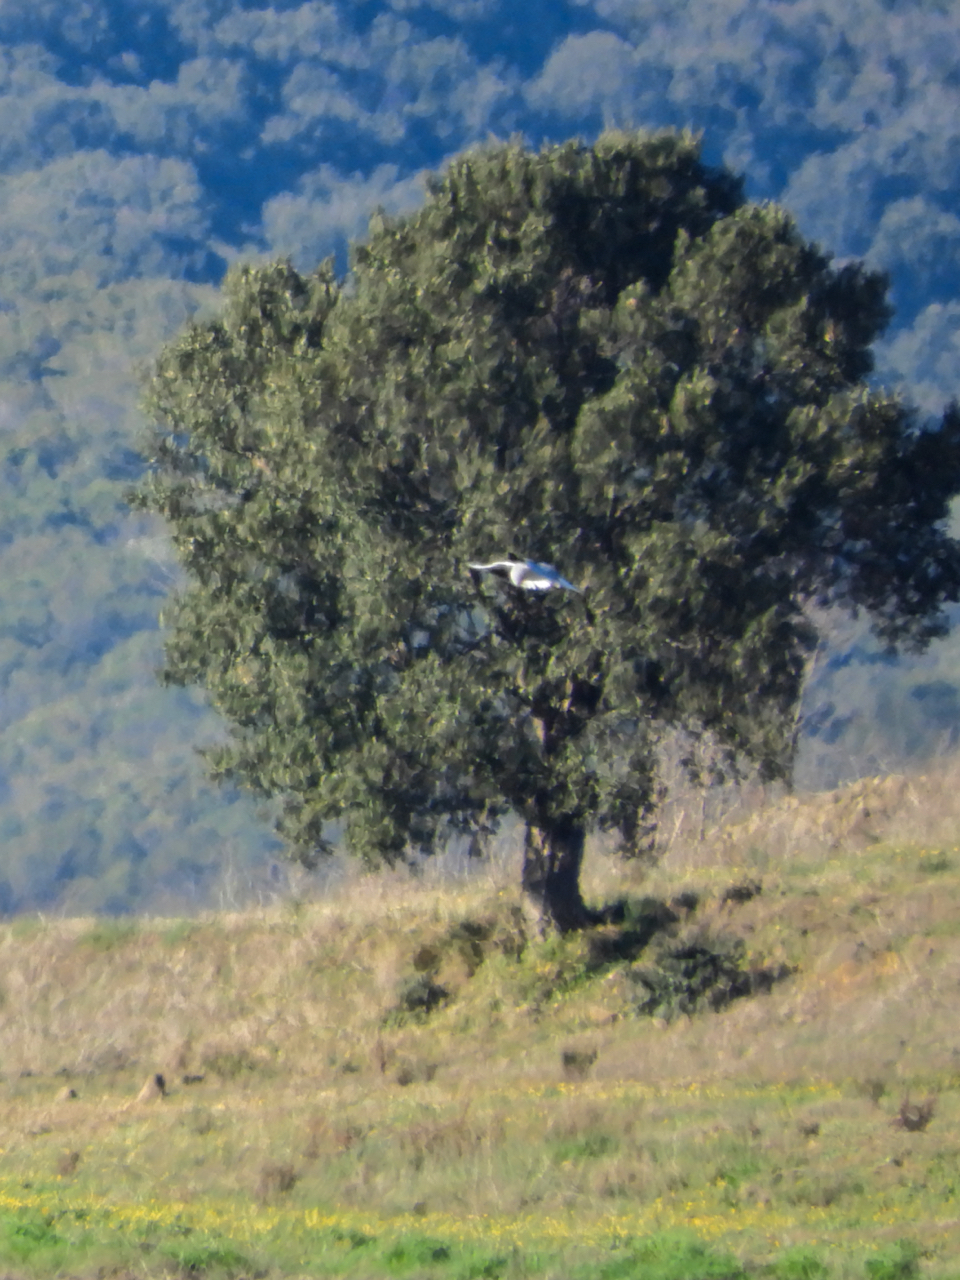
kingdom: Animalia
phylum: Chordata
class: Aves
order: Accipitriformes
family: Accipitridae
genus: Elanus
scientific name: Elanus caeruleus
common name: Black-winged kite
